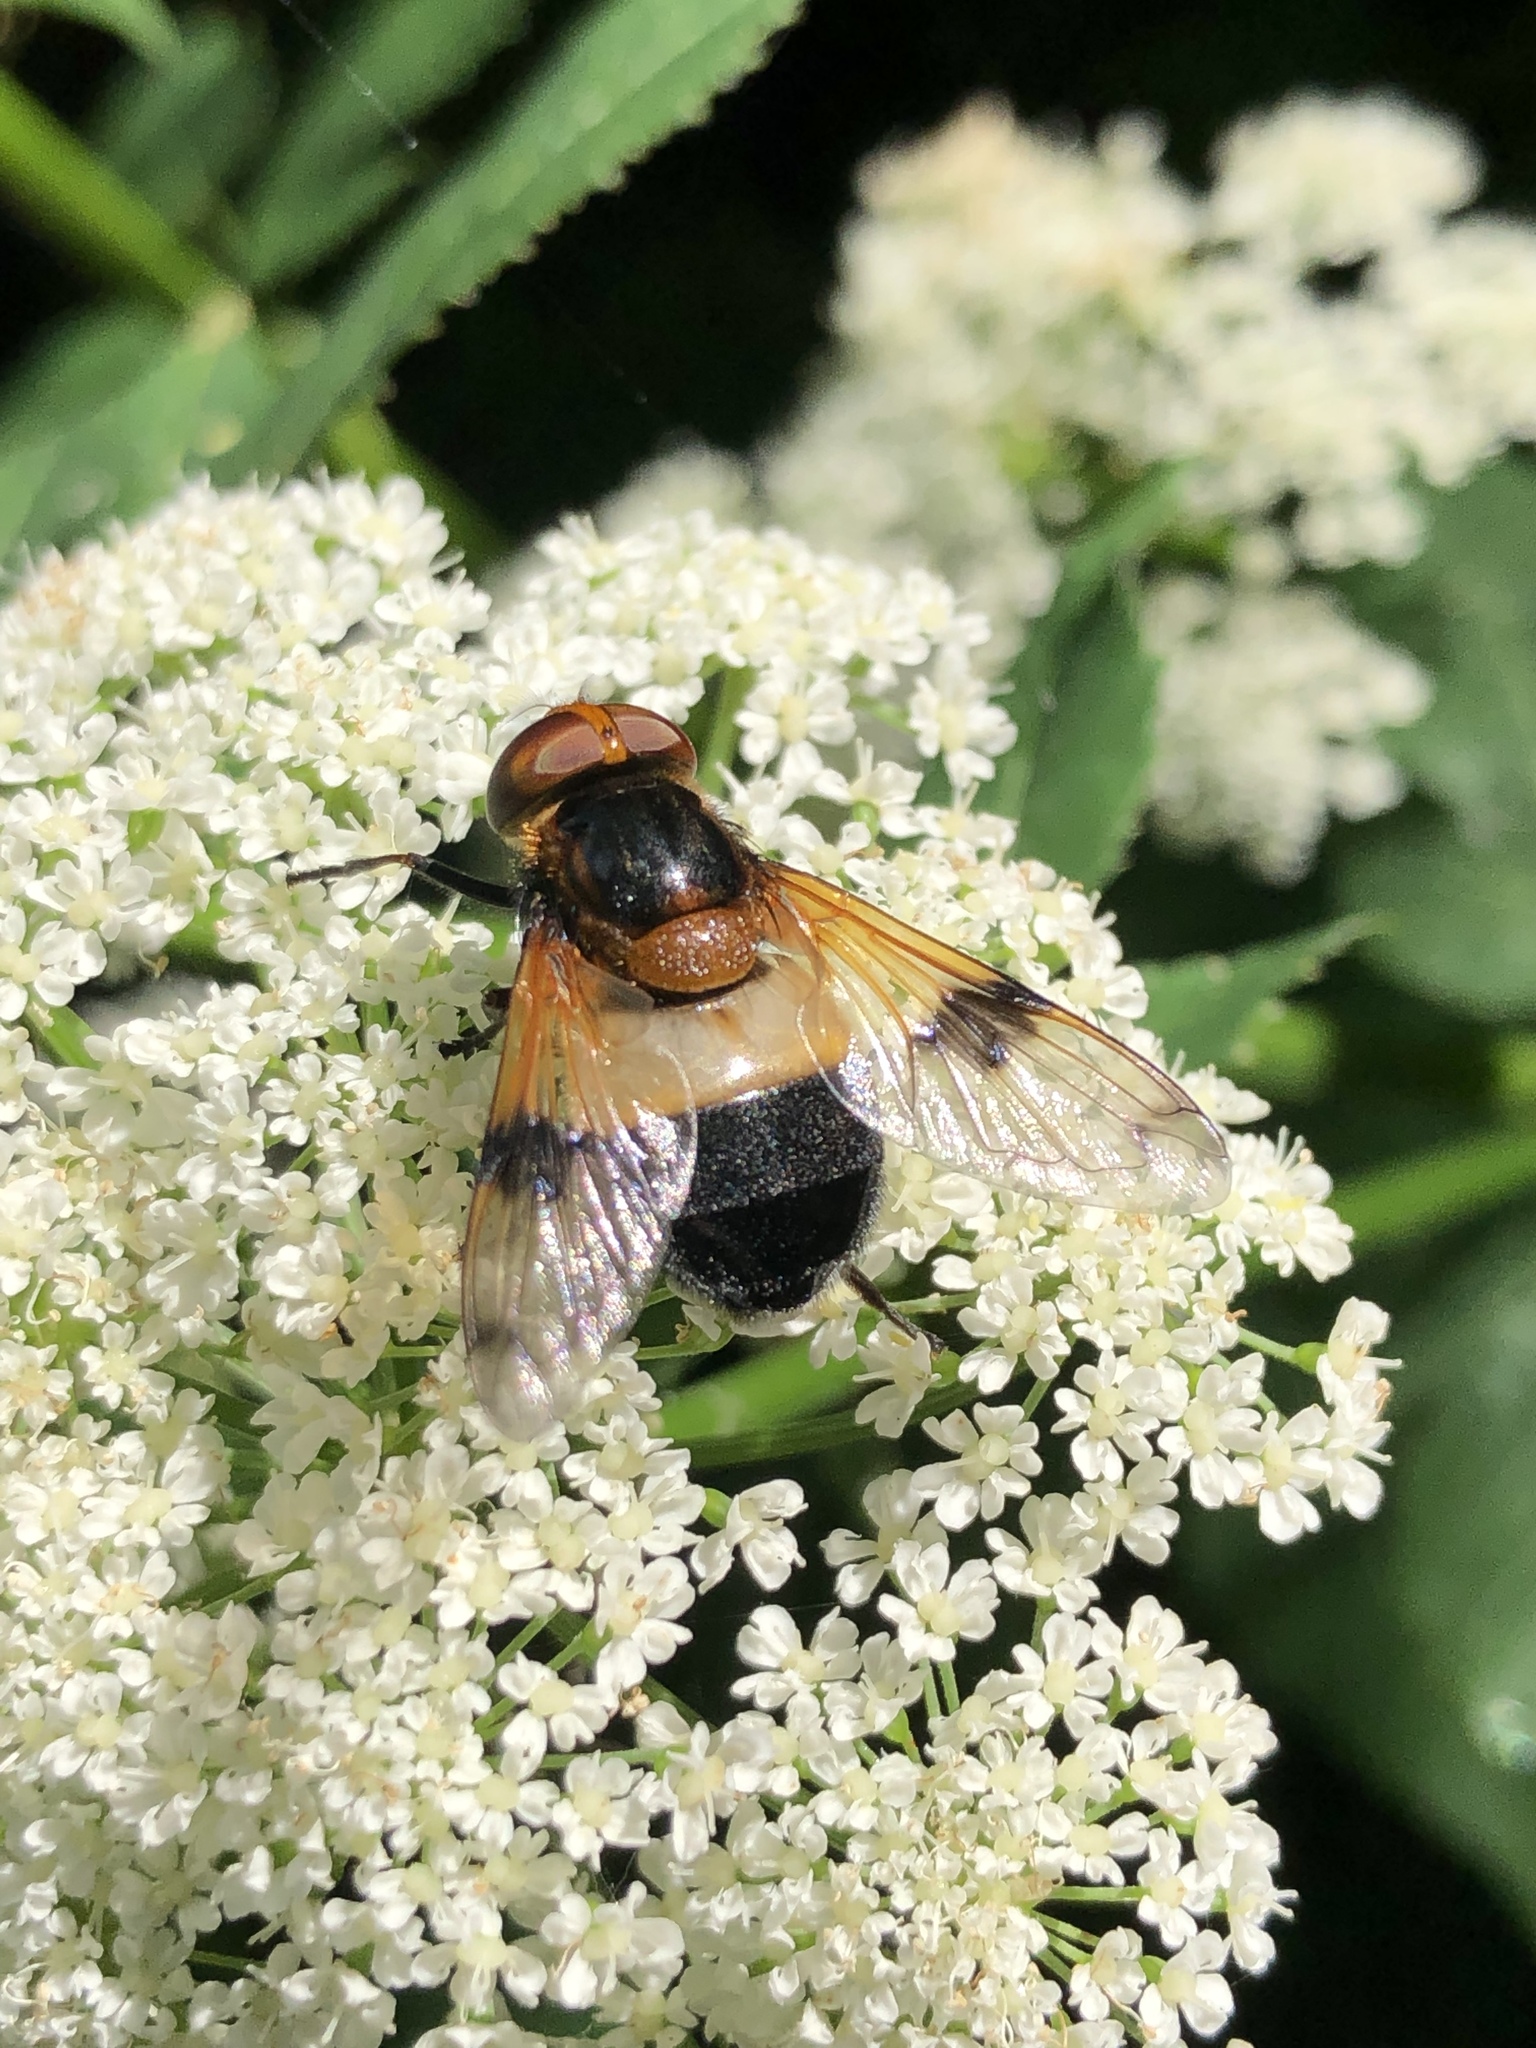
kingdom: Animalia
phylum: Arthropoda
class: Insecta
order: Diptera
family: Syrphidae
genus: Volucella
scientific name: Volucella pellucens
